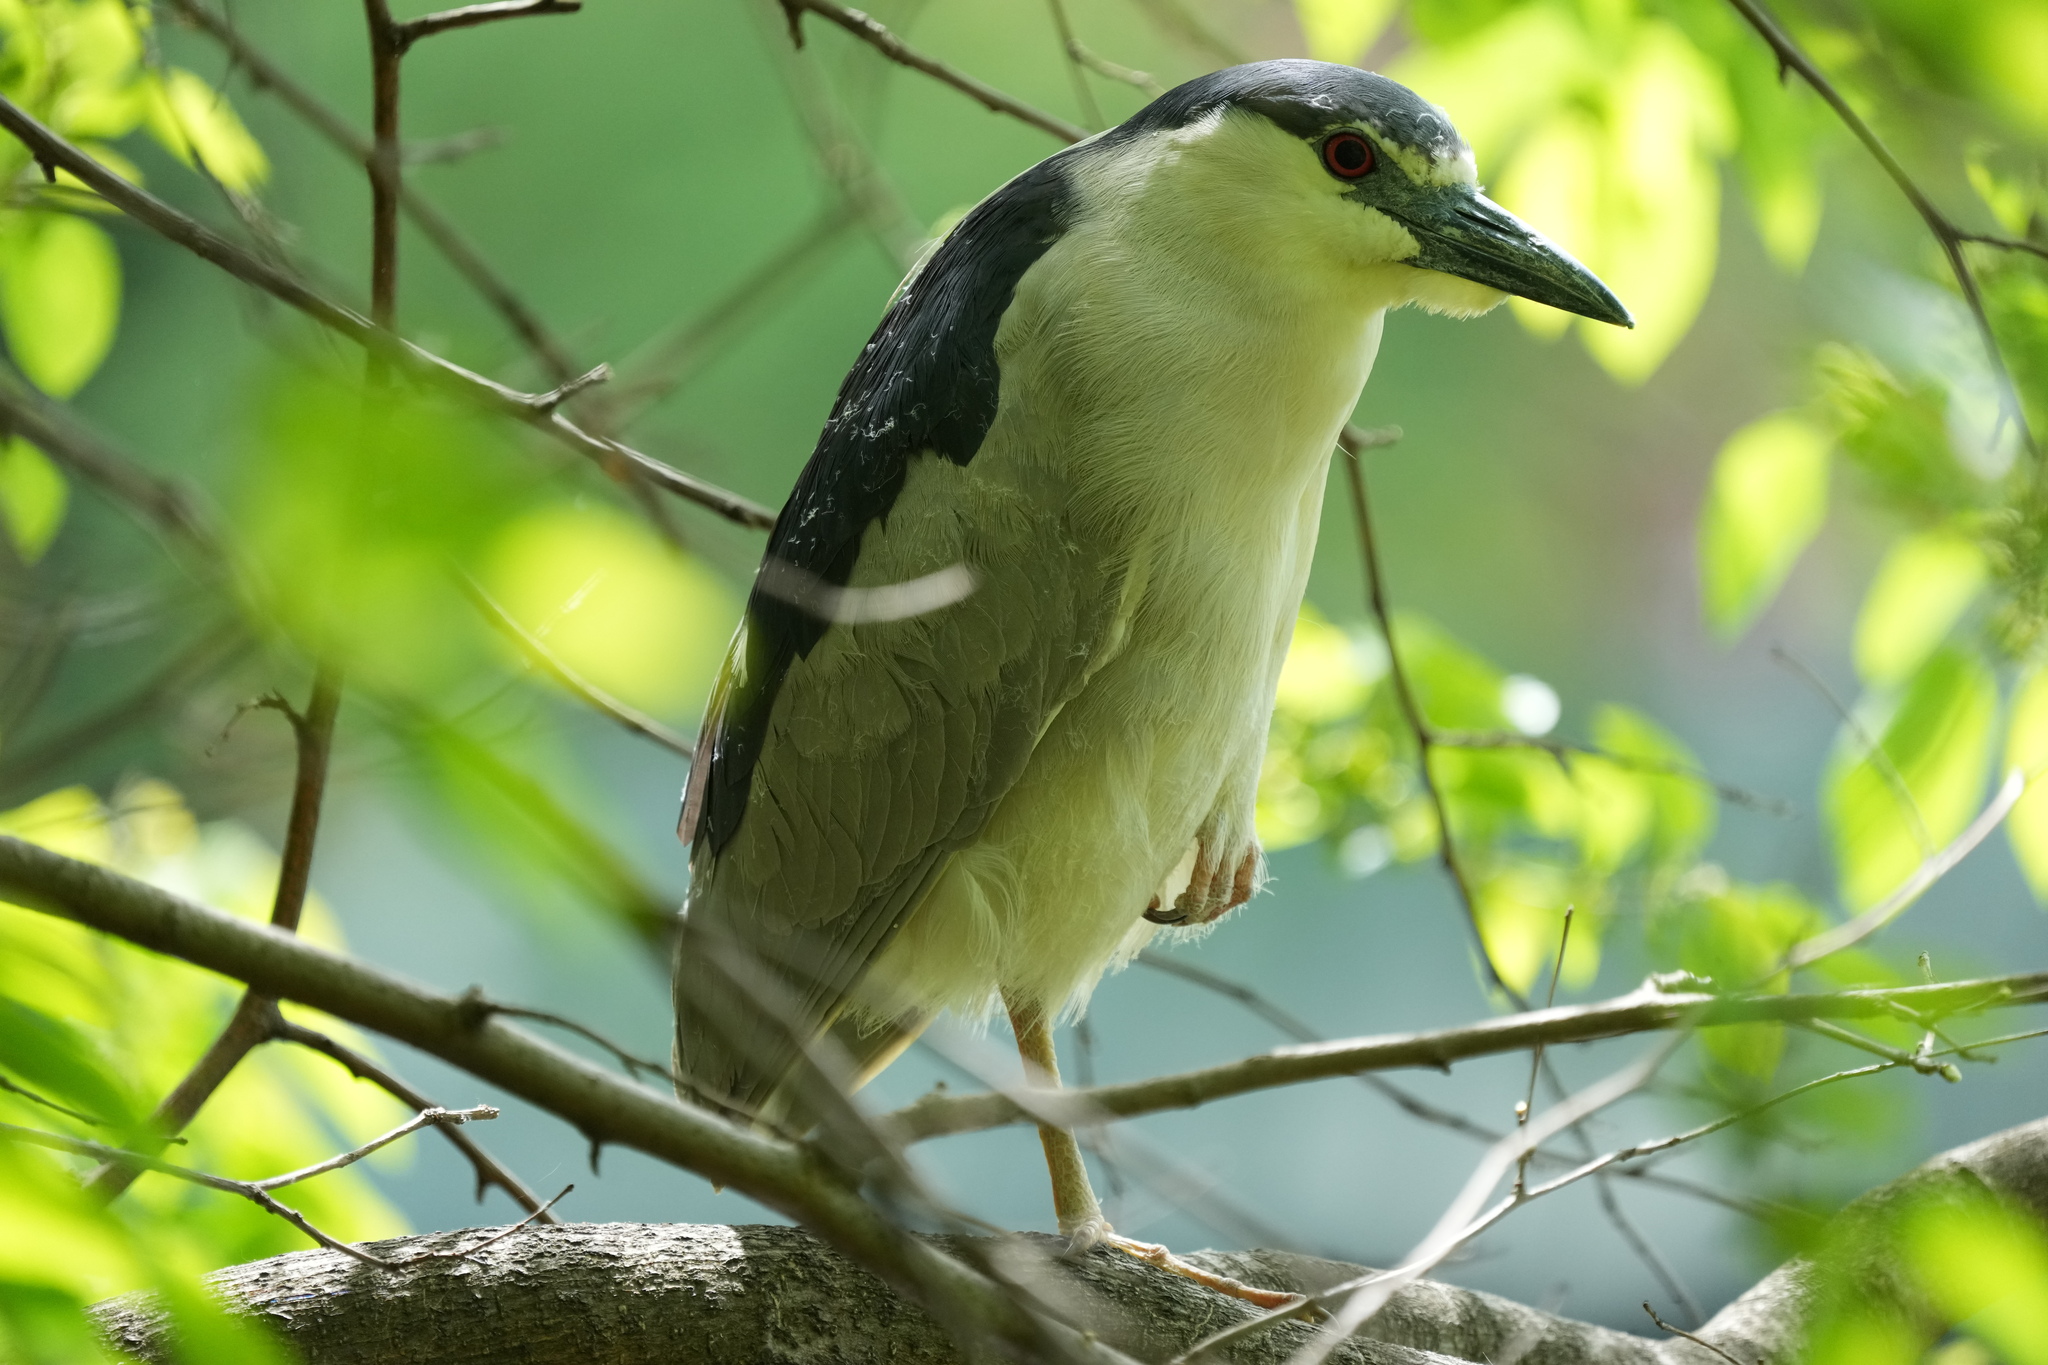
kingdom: Animalia
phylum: Chordata
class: Aves
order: Pelecaniformes
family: Ardeidae
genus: Nycticorax
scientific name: Nycticorax nycticorax
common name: Black-crowned night heron
